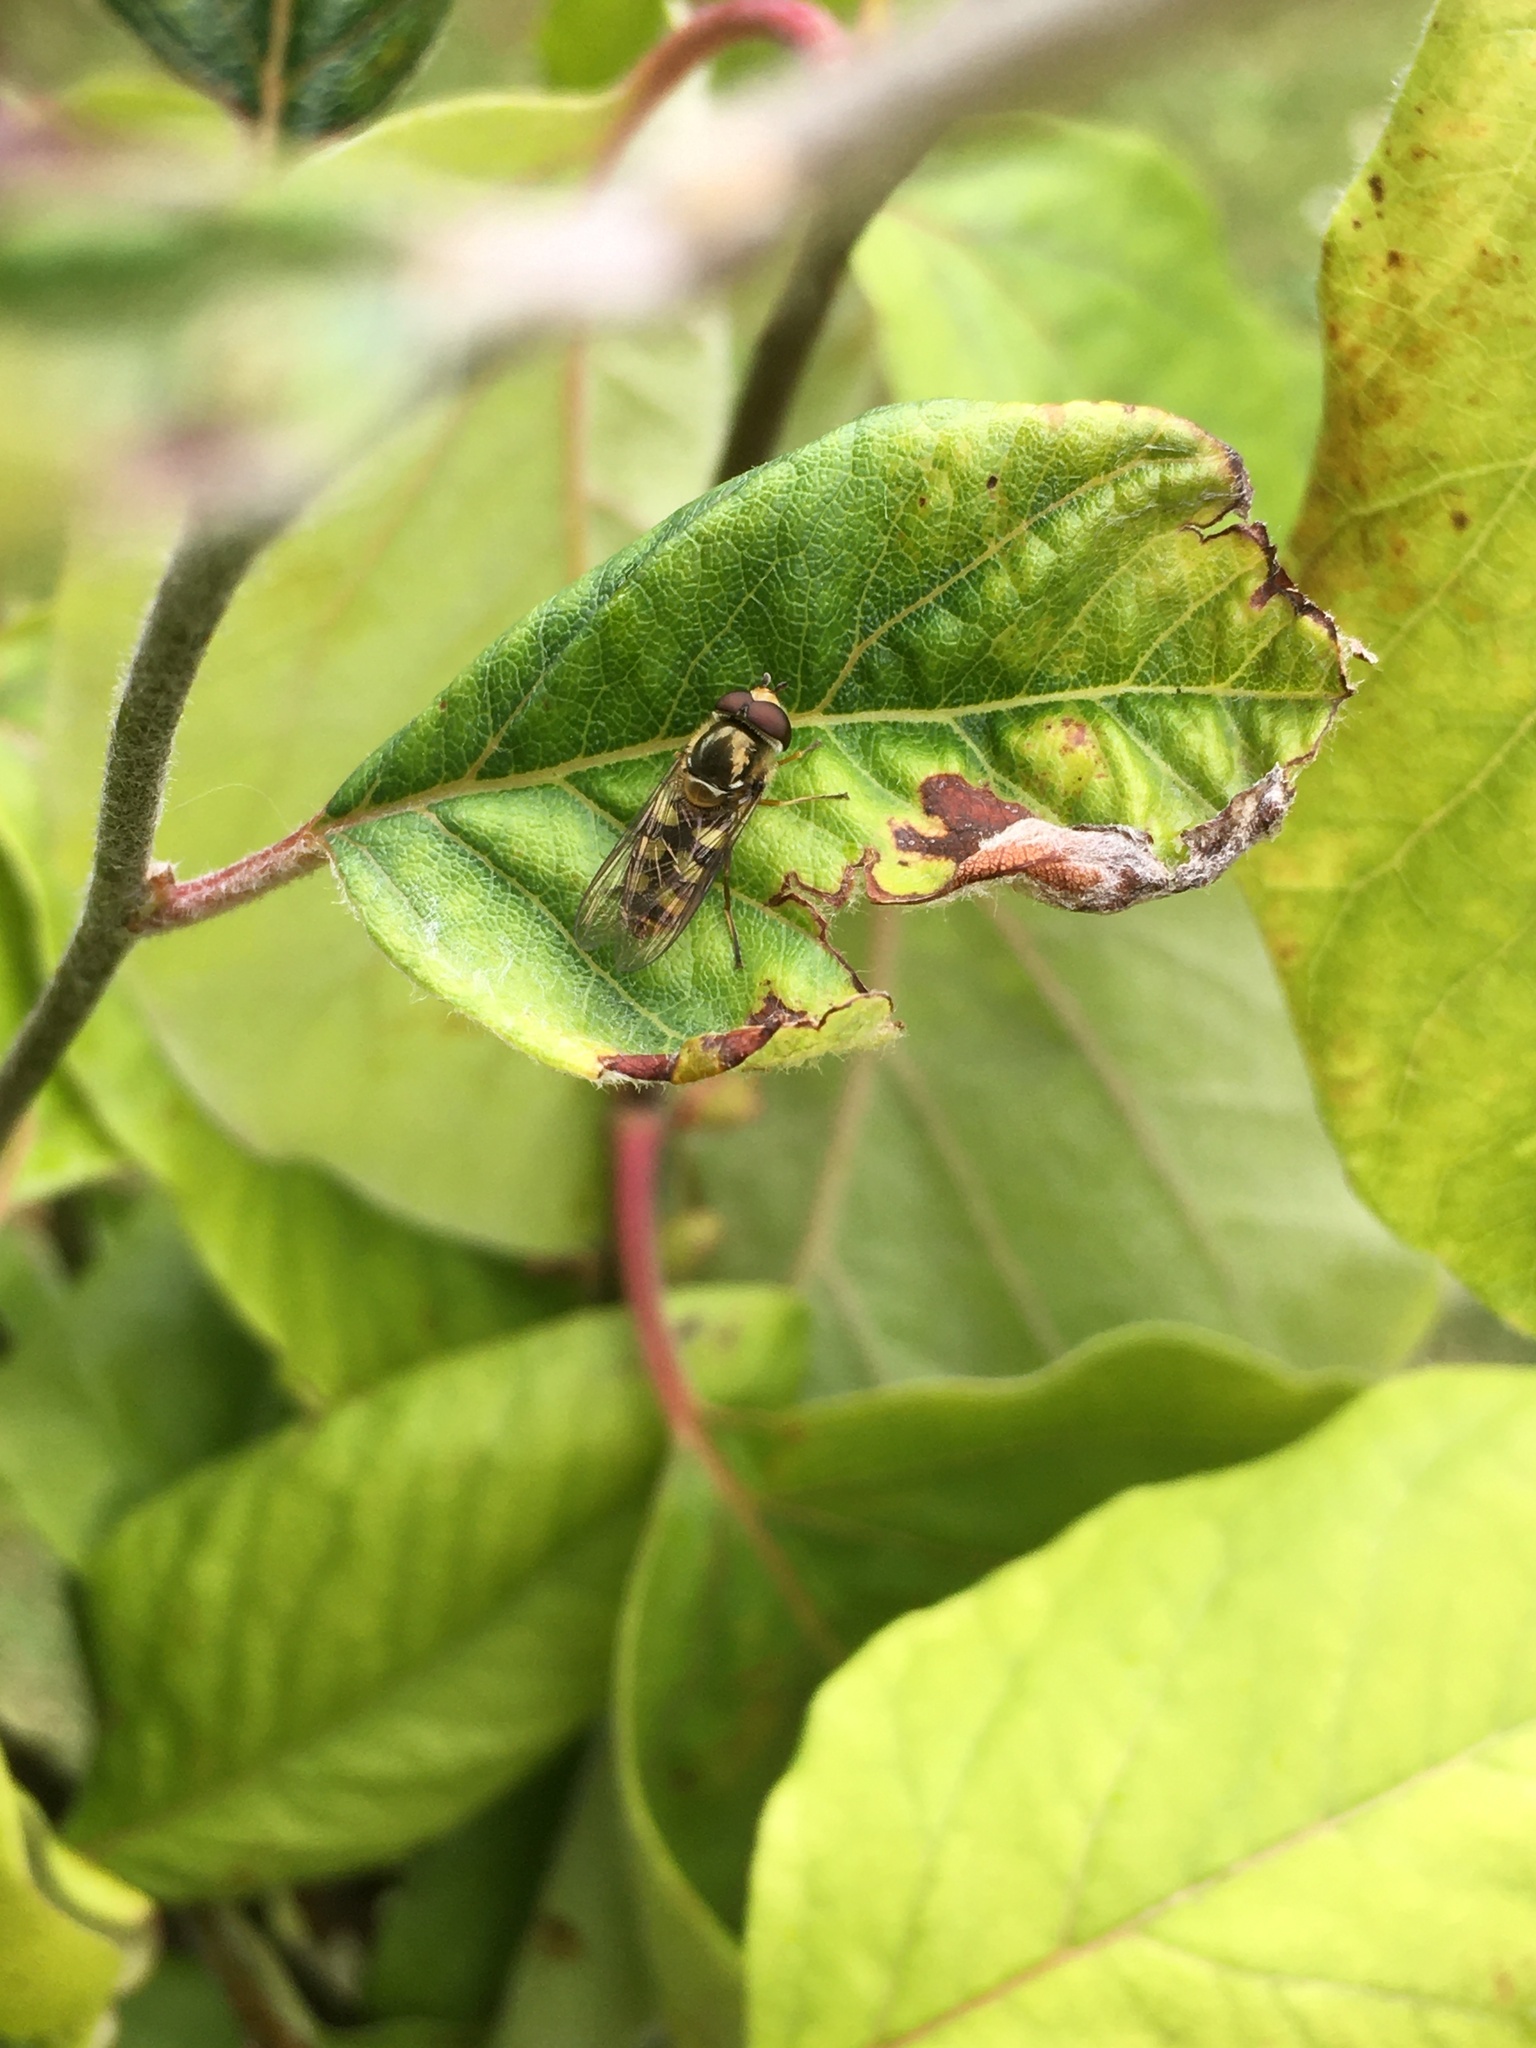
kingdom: Animalia
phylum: Arthropoda
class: Insecta
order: Diptera
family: Syrphidae
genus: Eupeodes
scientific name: Eupeodes corollae
